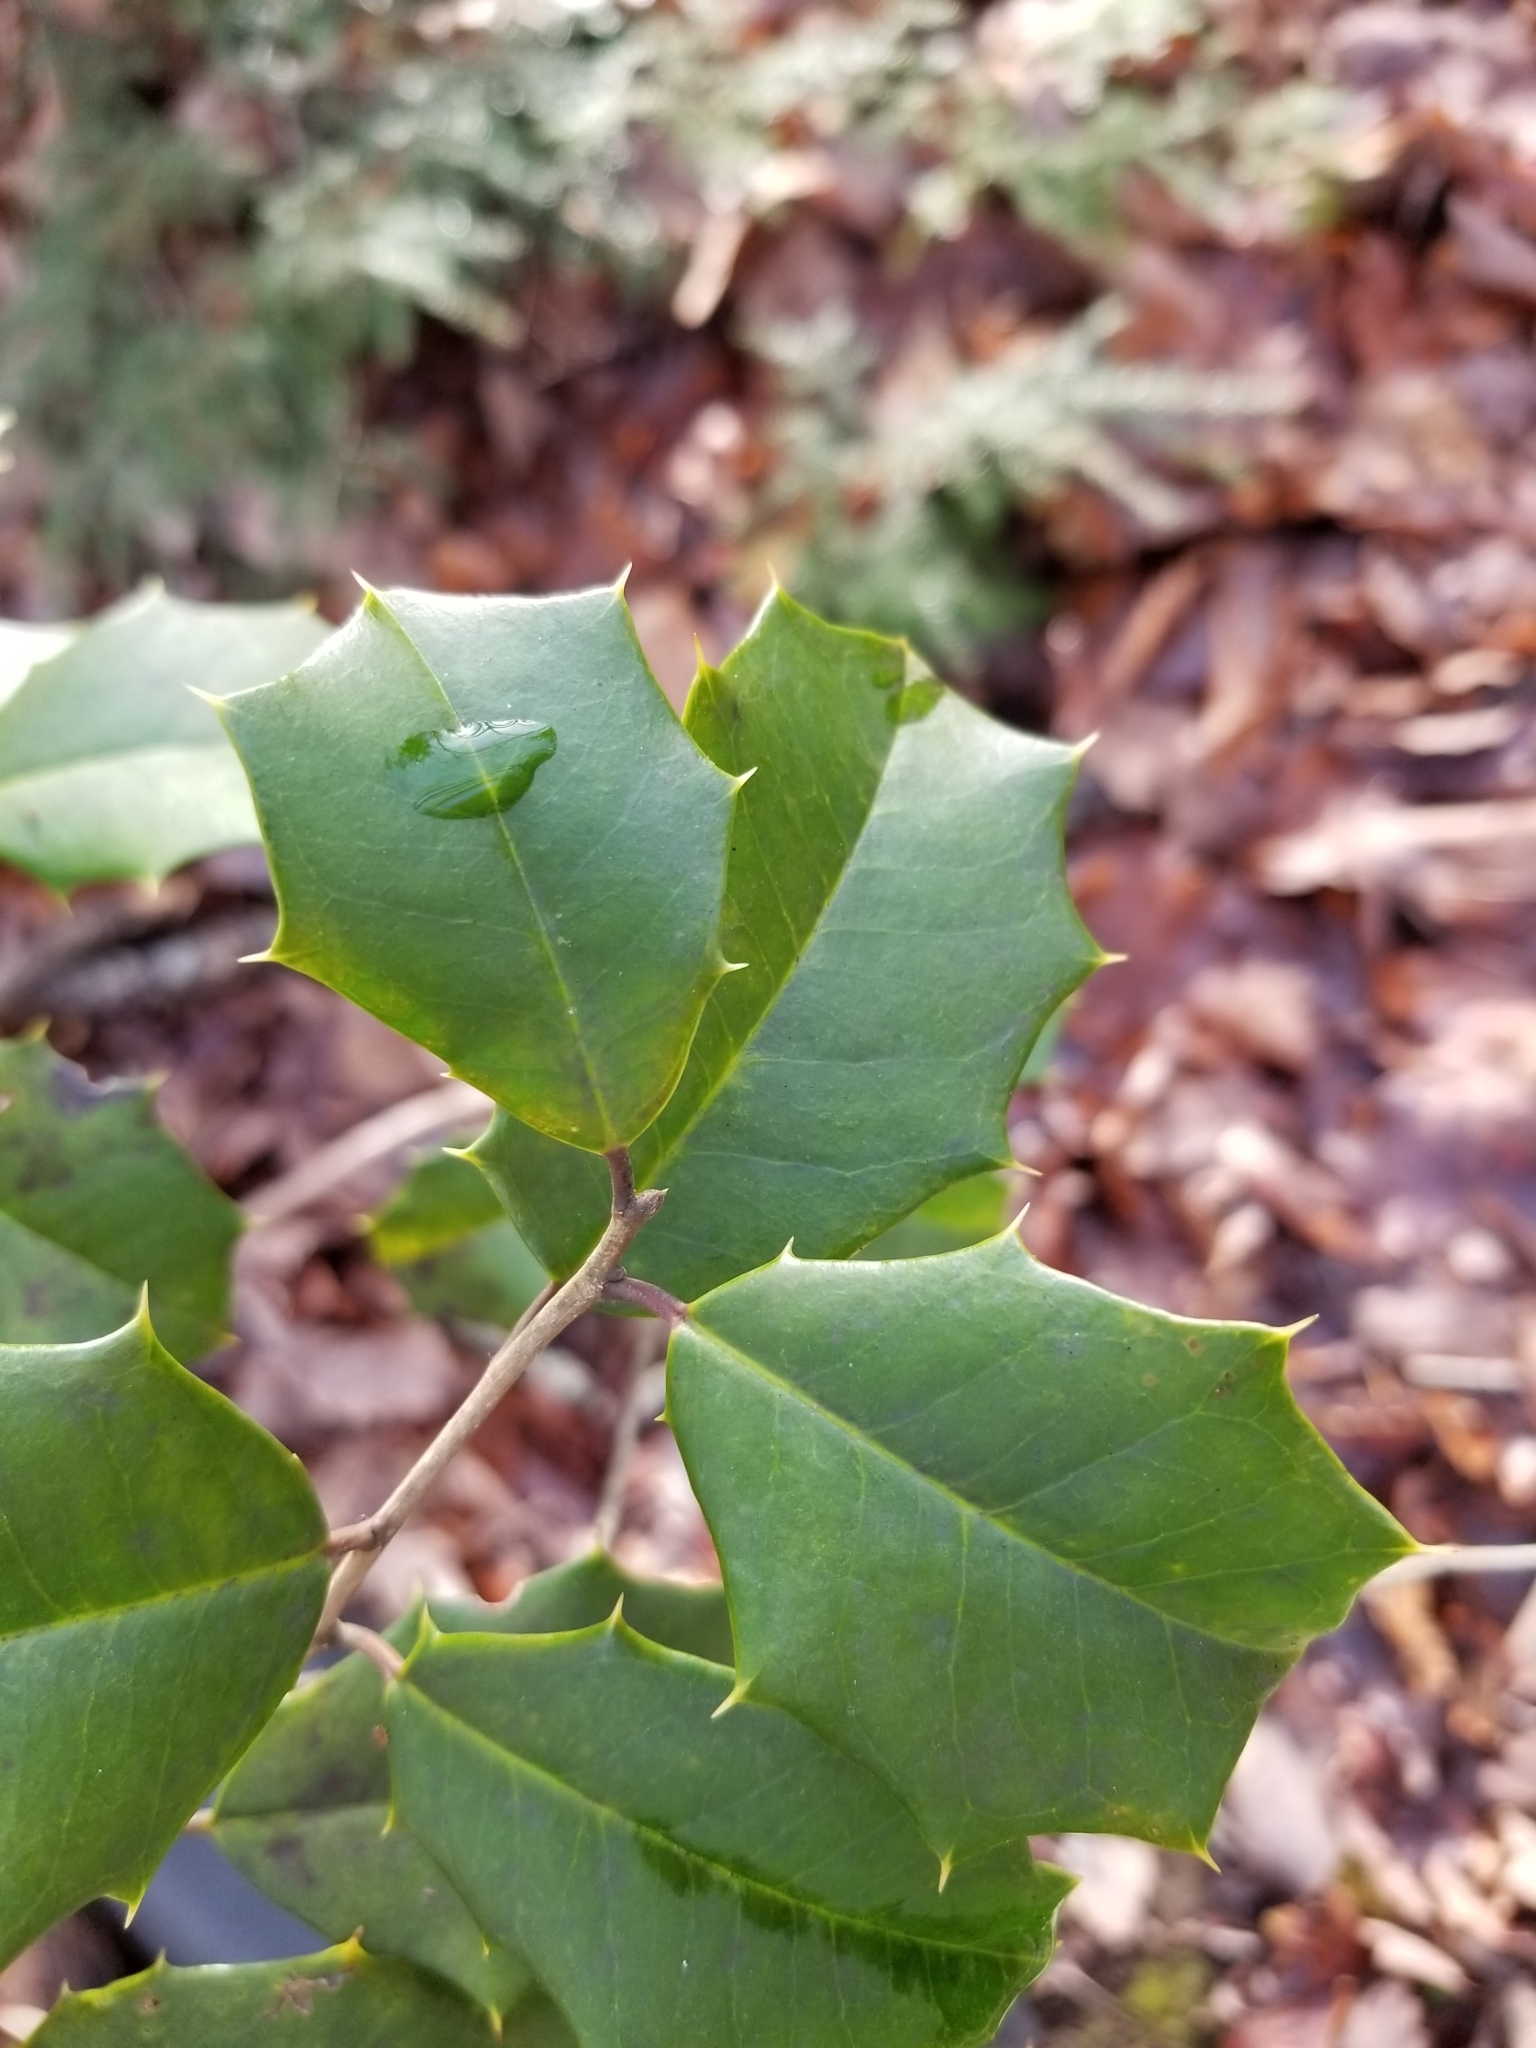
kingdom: Plantae
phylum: Tracheophyta
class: Magnoliopsida
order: Aquifoliales
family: Aquifoliaceae
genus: Ilex
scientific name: Ilex opaca
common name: American holly
